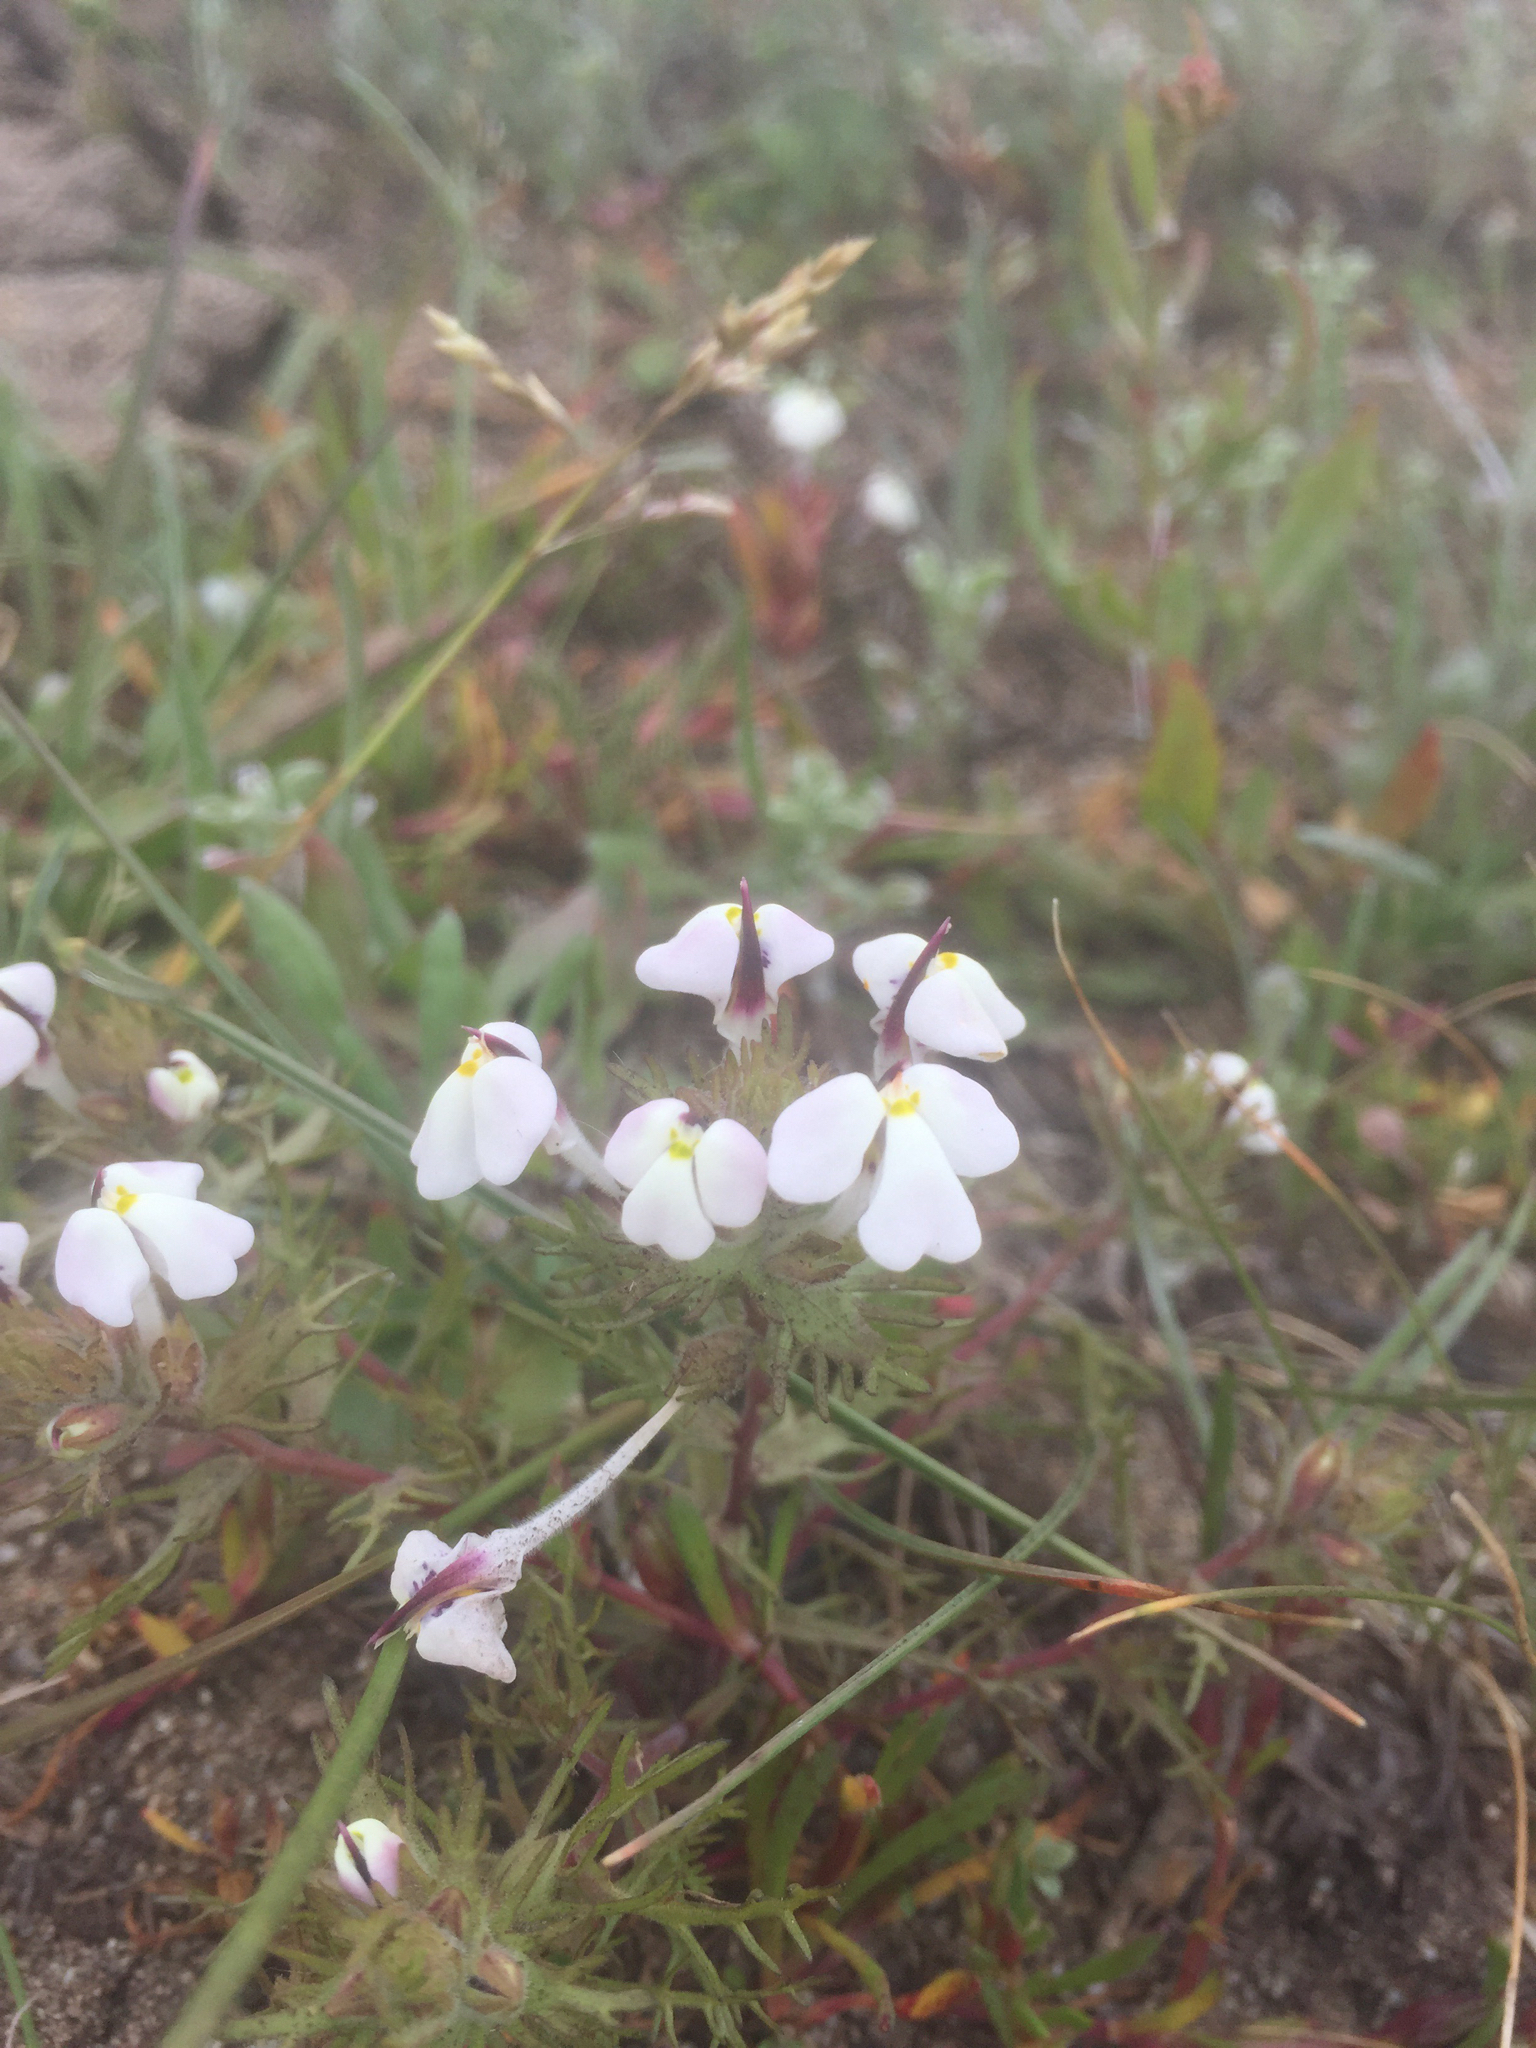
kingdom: Plantae
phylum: Tracheophyta
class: Magnoliopsida
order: Lamiales
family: Orobanchaceae
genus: Triphysaria
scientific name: Triphysaria eriantha
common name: Johnny-tuck
